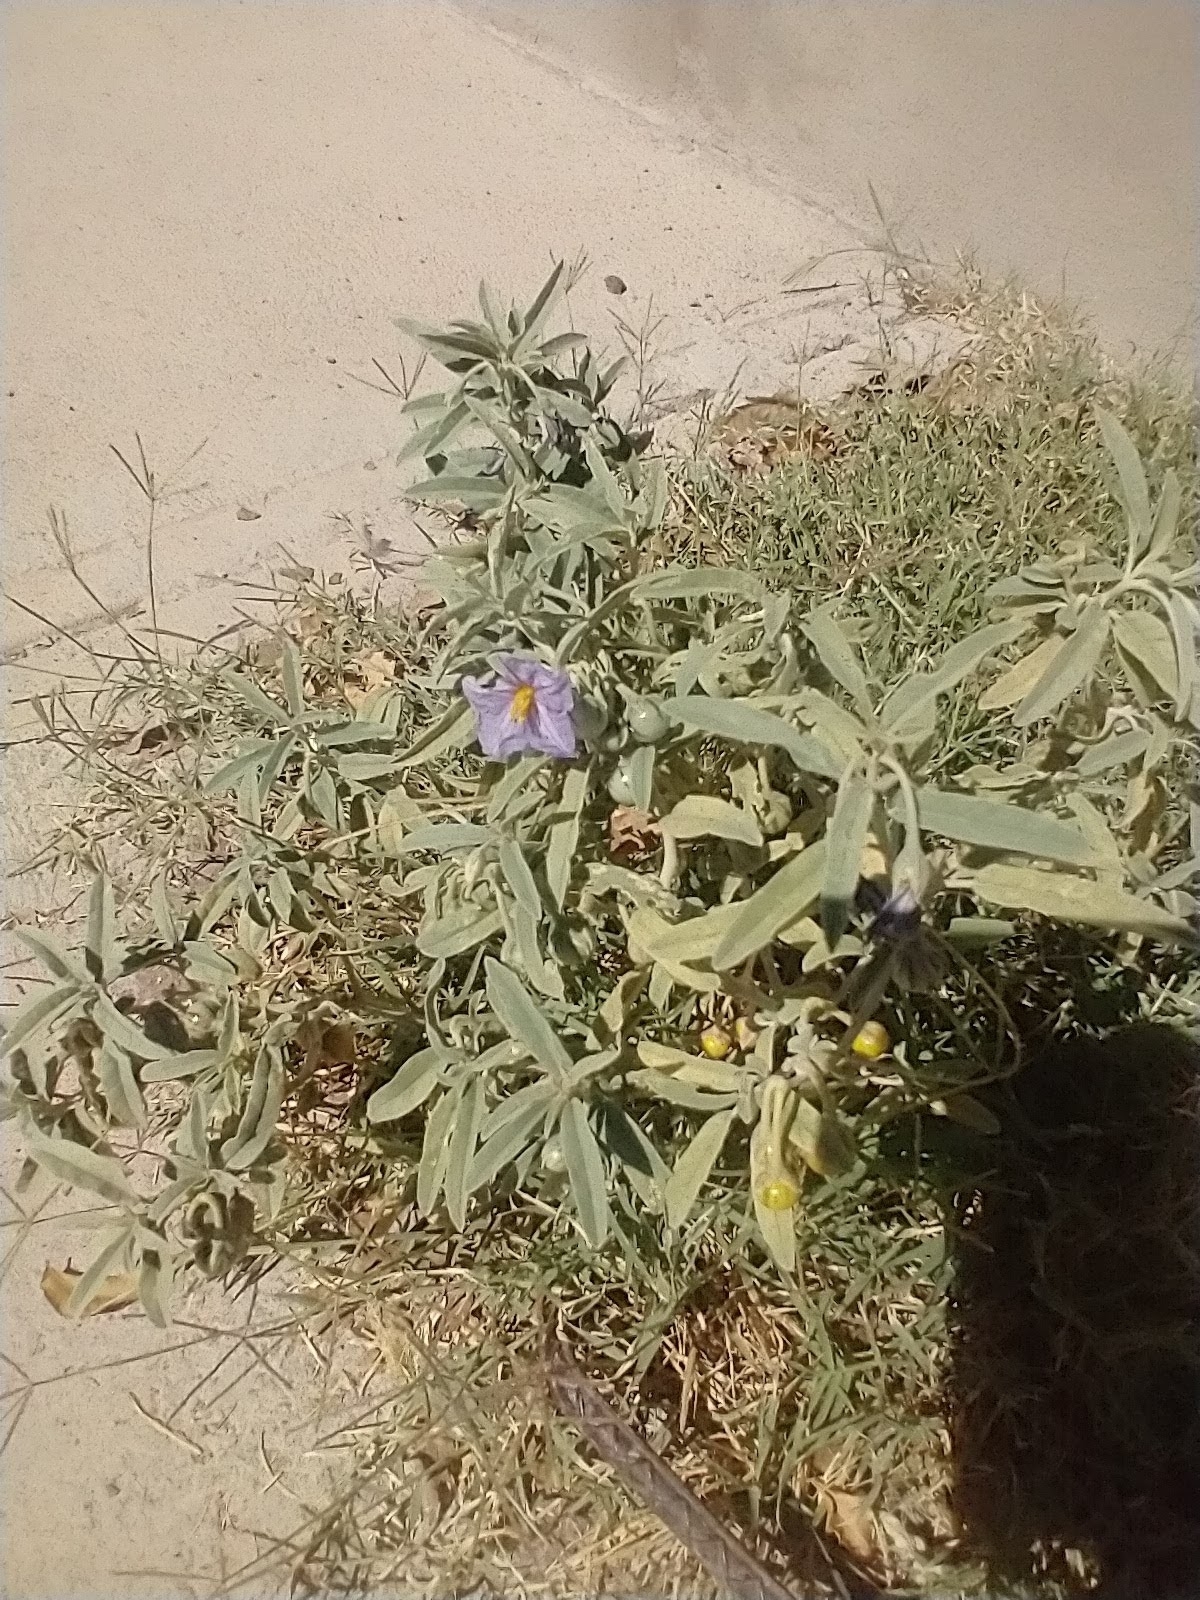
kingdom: Plantae
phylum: Tracheophyta
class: Magnoliopsida
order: Solanales
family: Solanaceae
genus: Solanum
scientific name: Solanum elaeagnifolium
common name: Silverleaf nightshade
